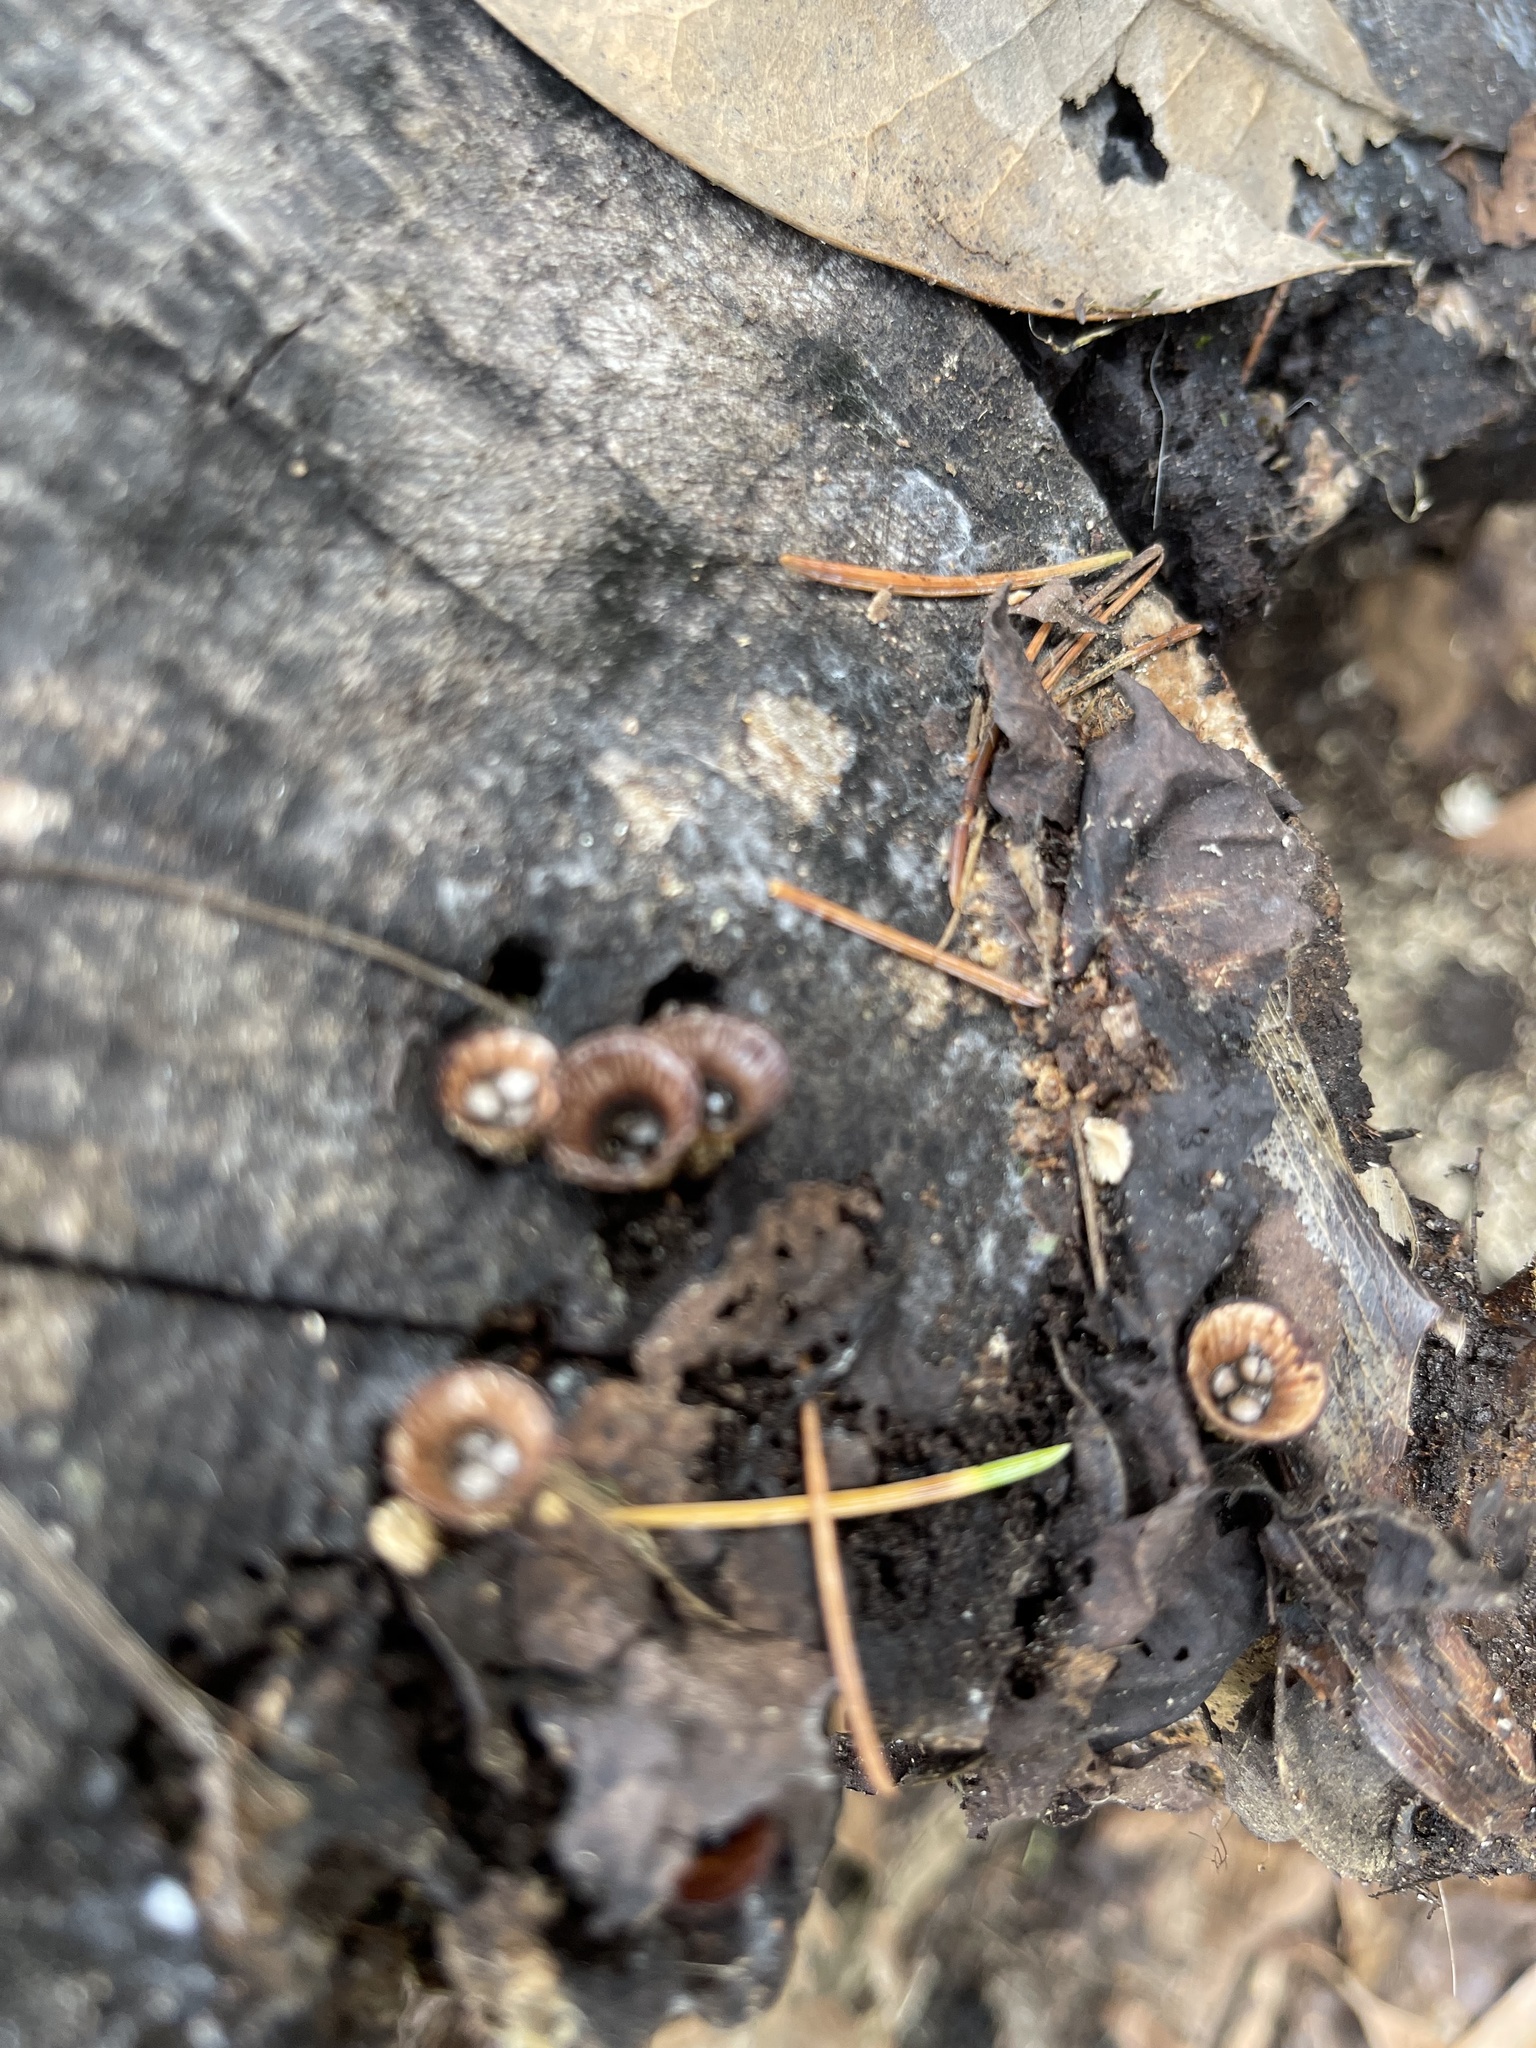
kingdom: Fungi
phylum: Basidiomycota
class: Agaricomycetes
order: Agaricales
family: Agaricaceae
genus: Cyathus
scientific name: Cyathus striatus
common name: Fluted bird's nest
